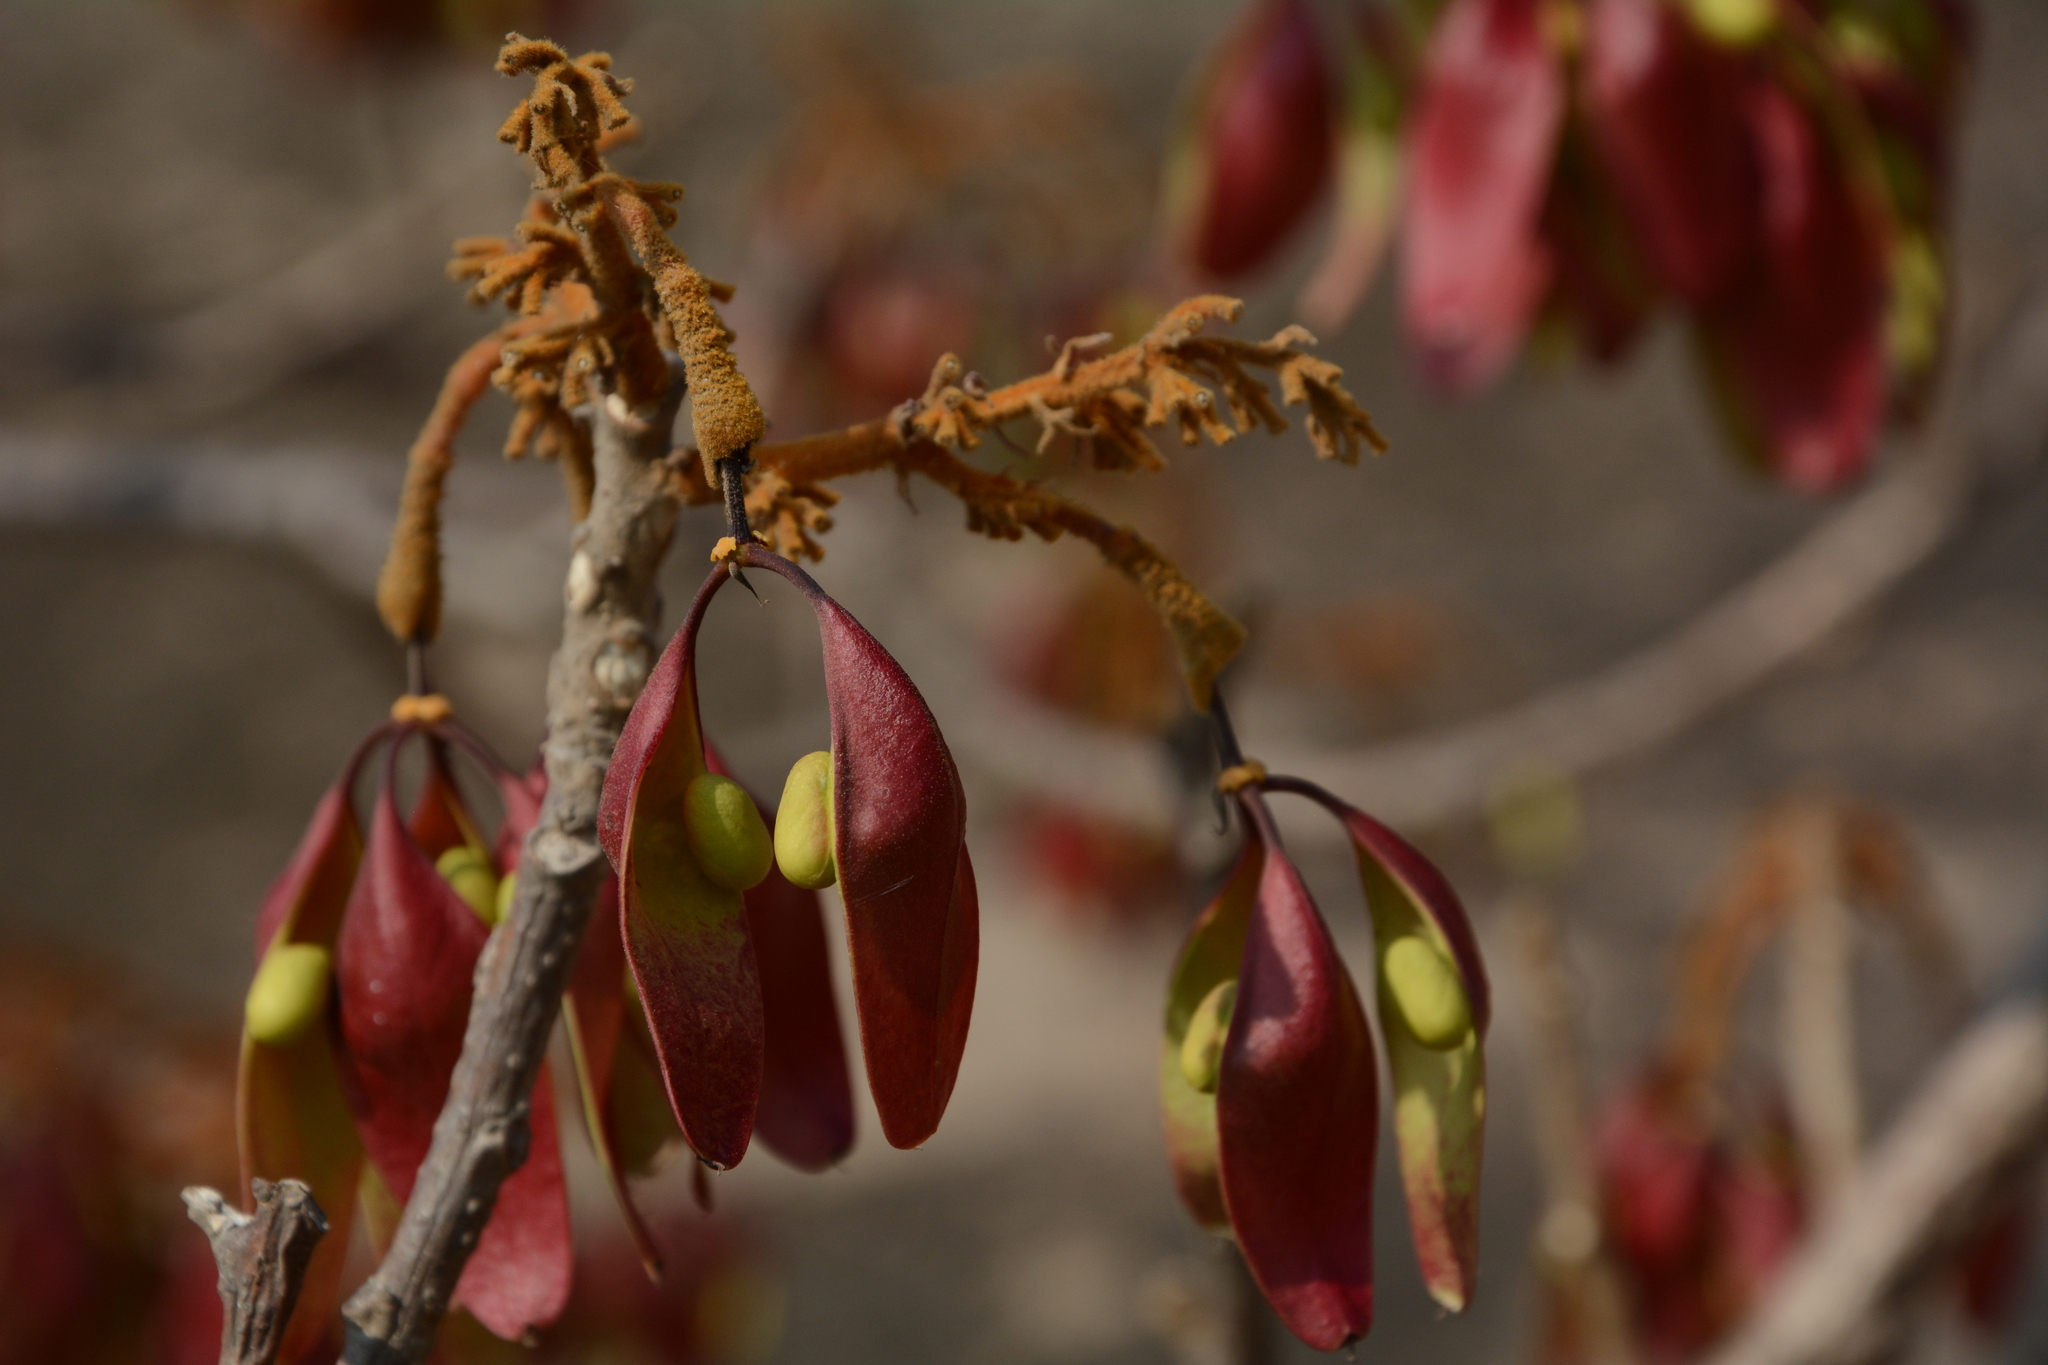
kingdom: Plantae
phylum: Tracheophyta
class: Magnoliopsida
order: Malvales
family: Malvaceae
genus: Firmiana
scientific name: Firmiana colorata
